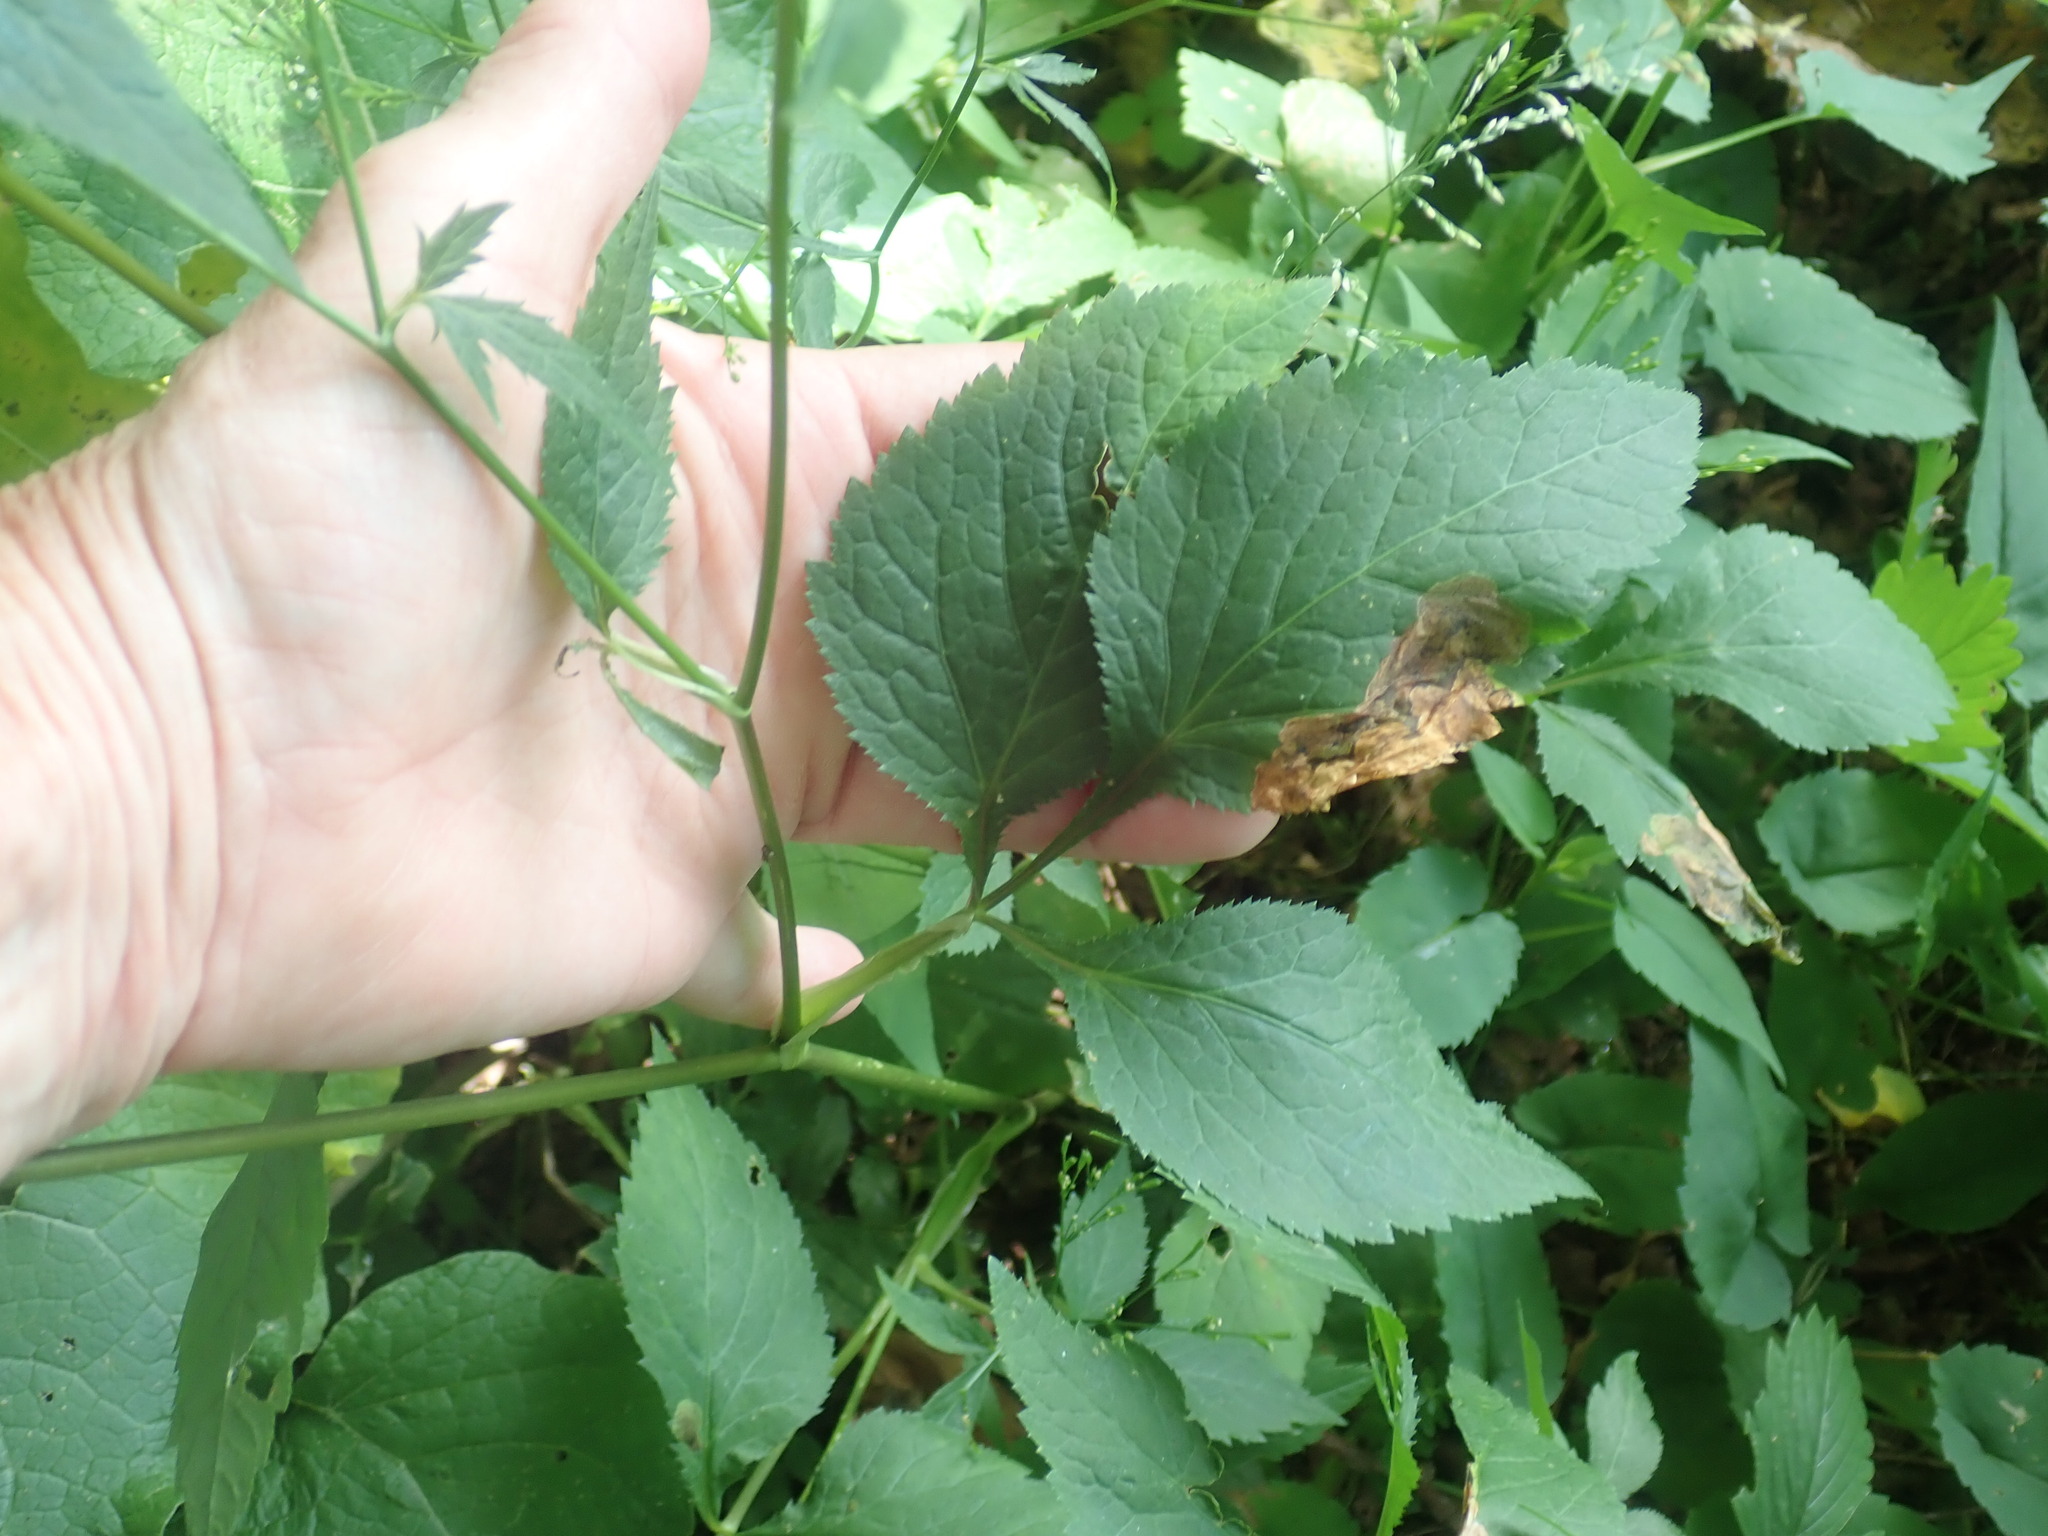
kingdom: Plantae
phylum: Tracheophyta
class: Magnoliopsida
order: Apiales
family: Apiaceae
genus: Cryptotaenia
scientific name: Cryptotaenia canadensis
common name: Honewort
